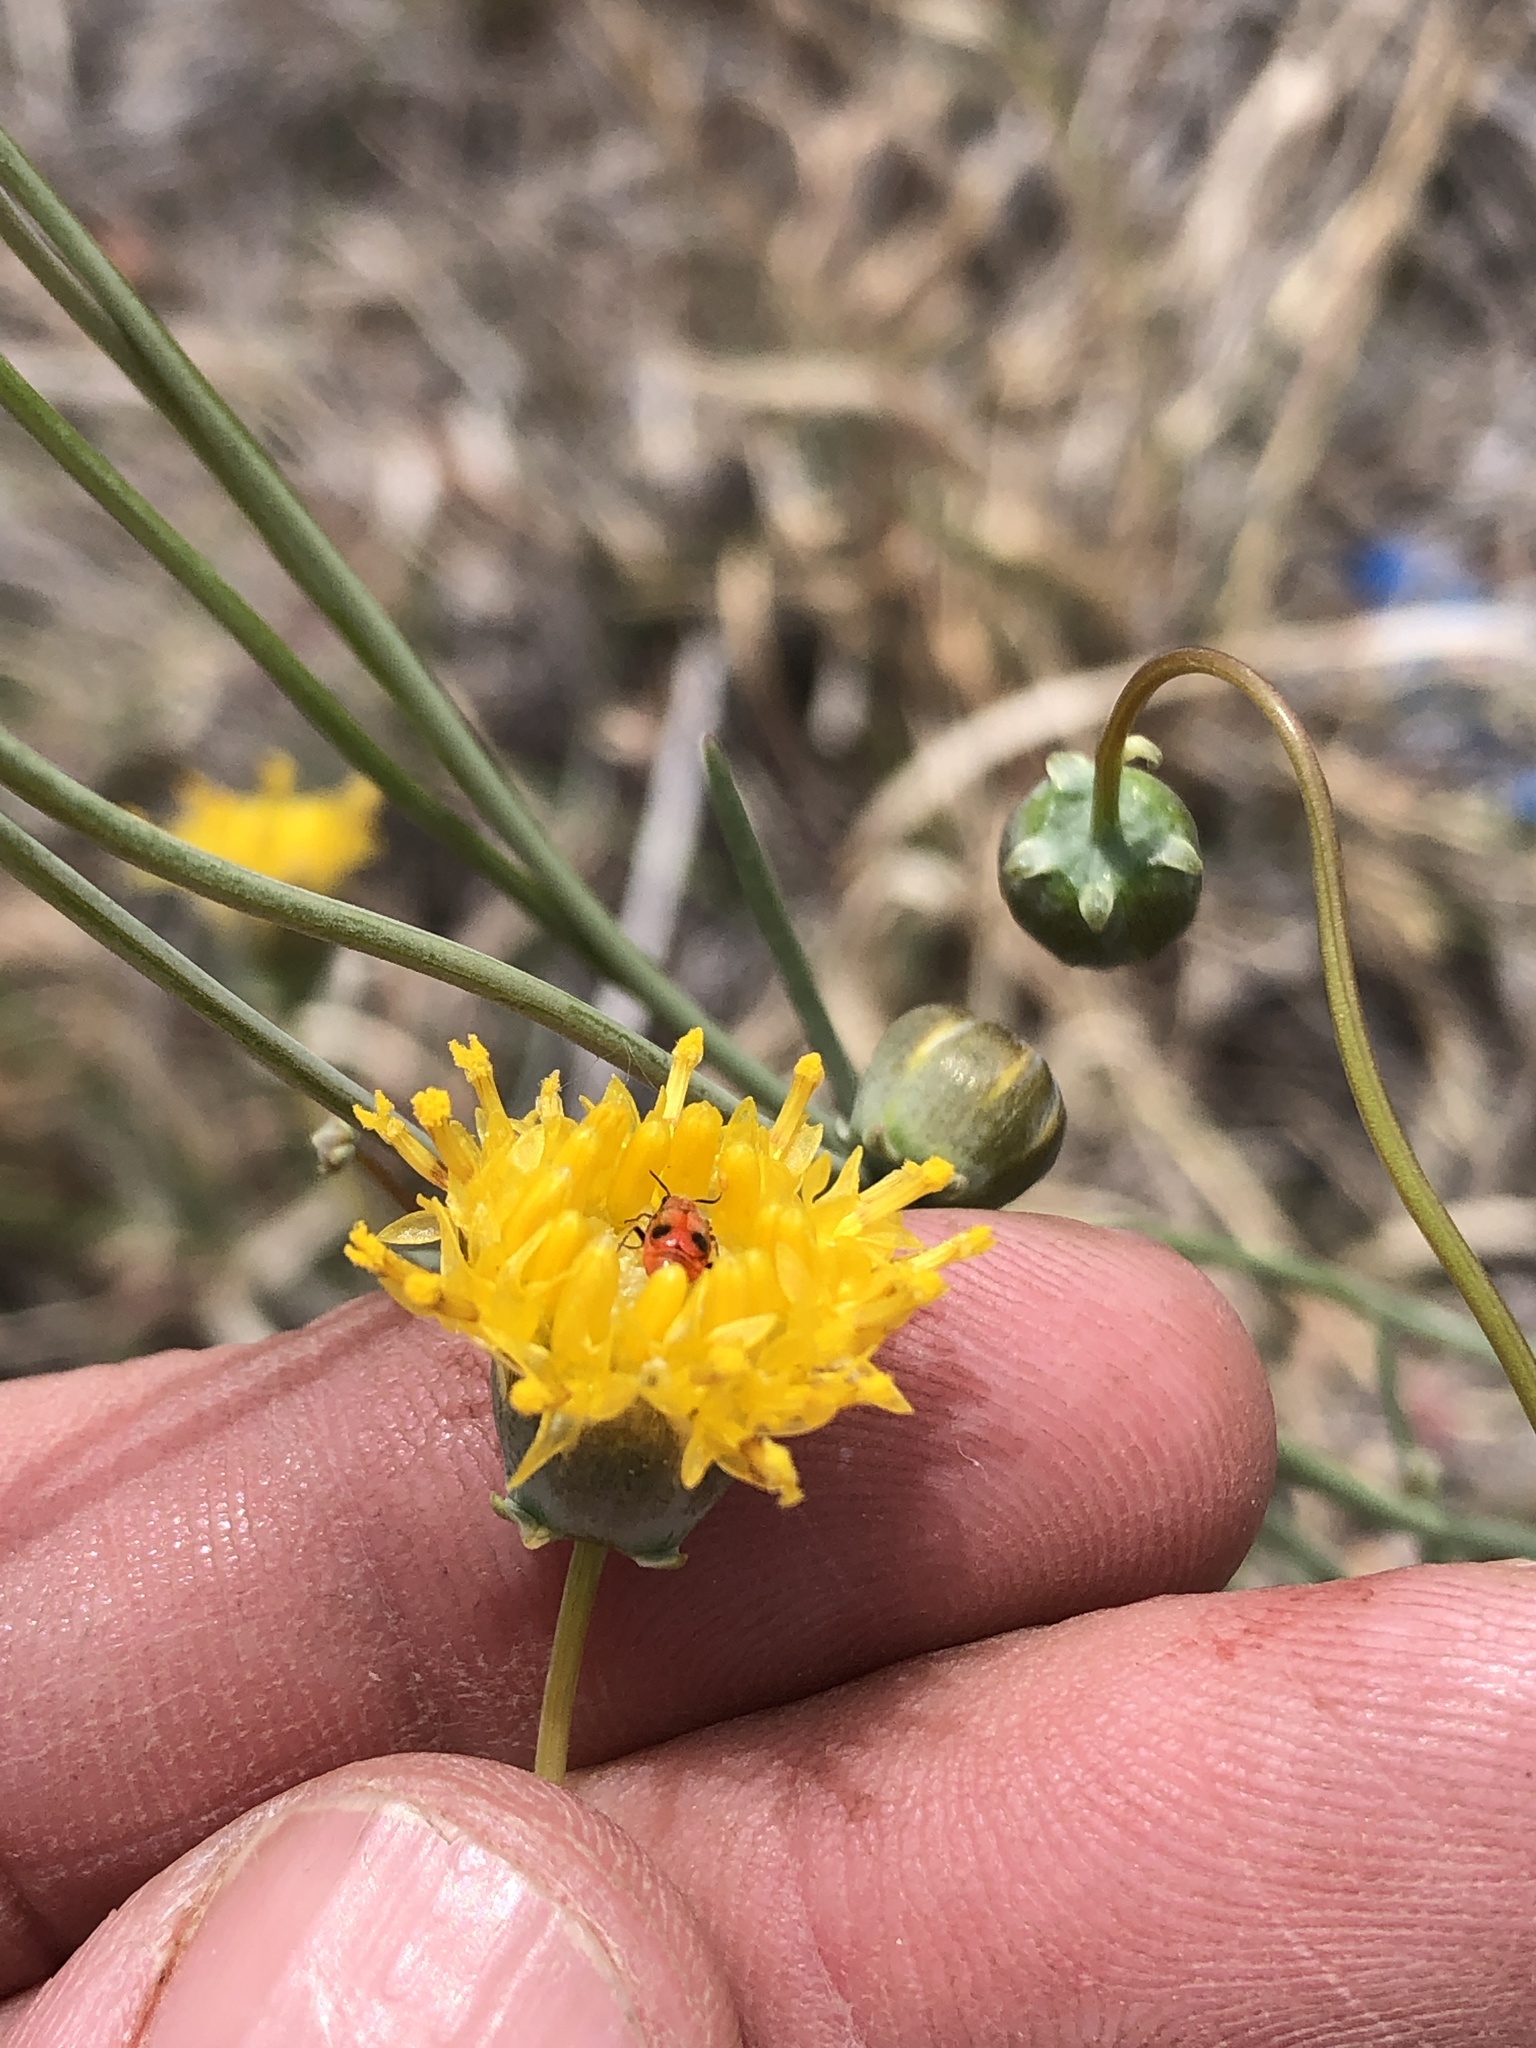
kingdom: Plantae
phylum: Tracheophyta
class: Magnoliopsida
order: Asterales
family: Asteraceae
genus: Thelesperma
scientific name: Thelesperma megapotamicum
